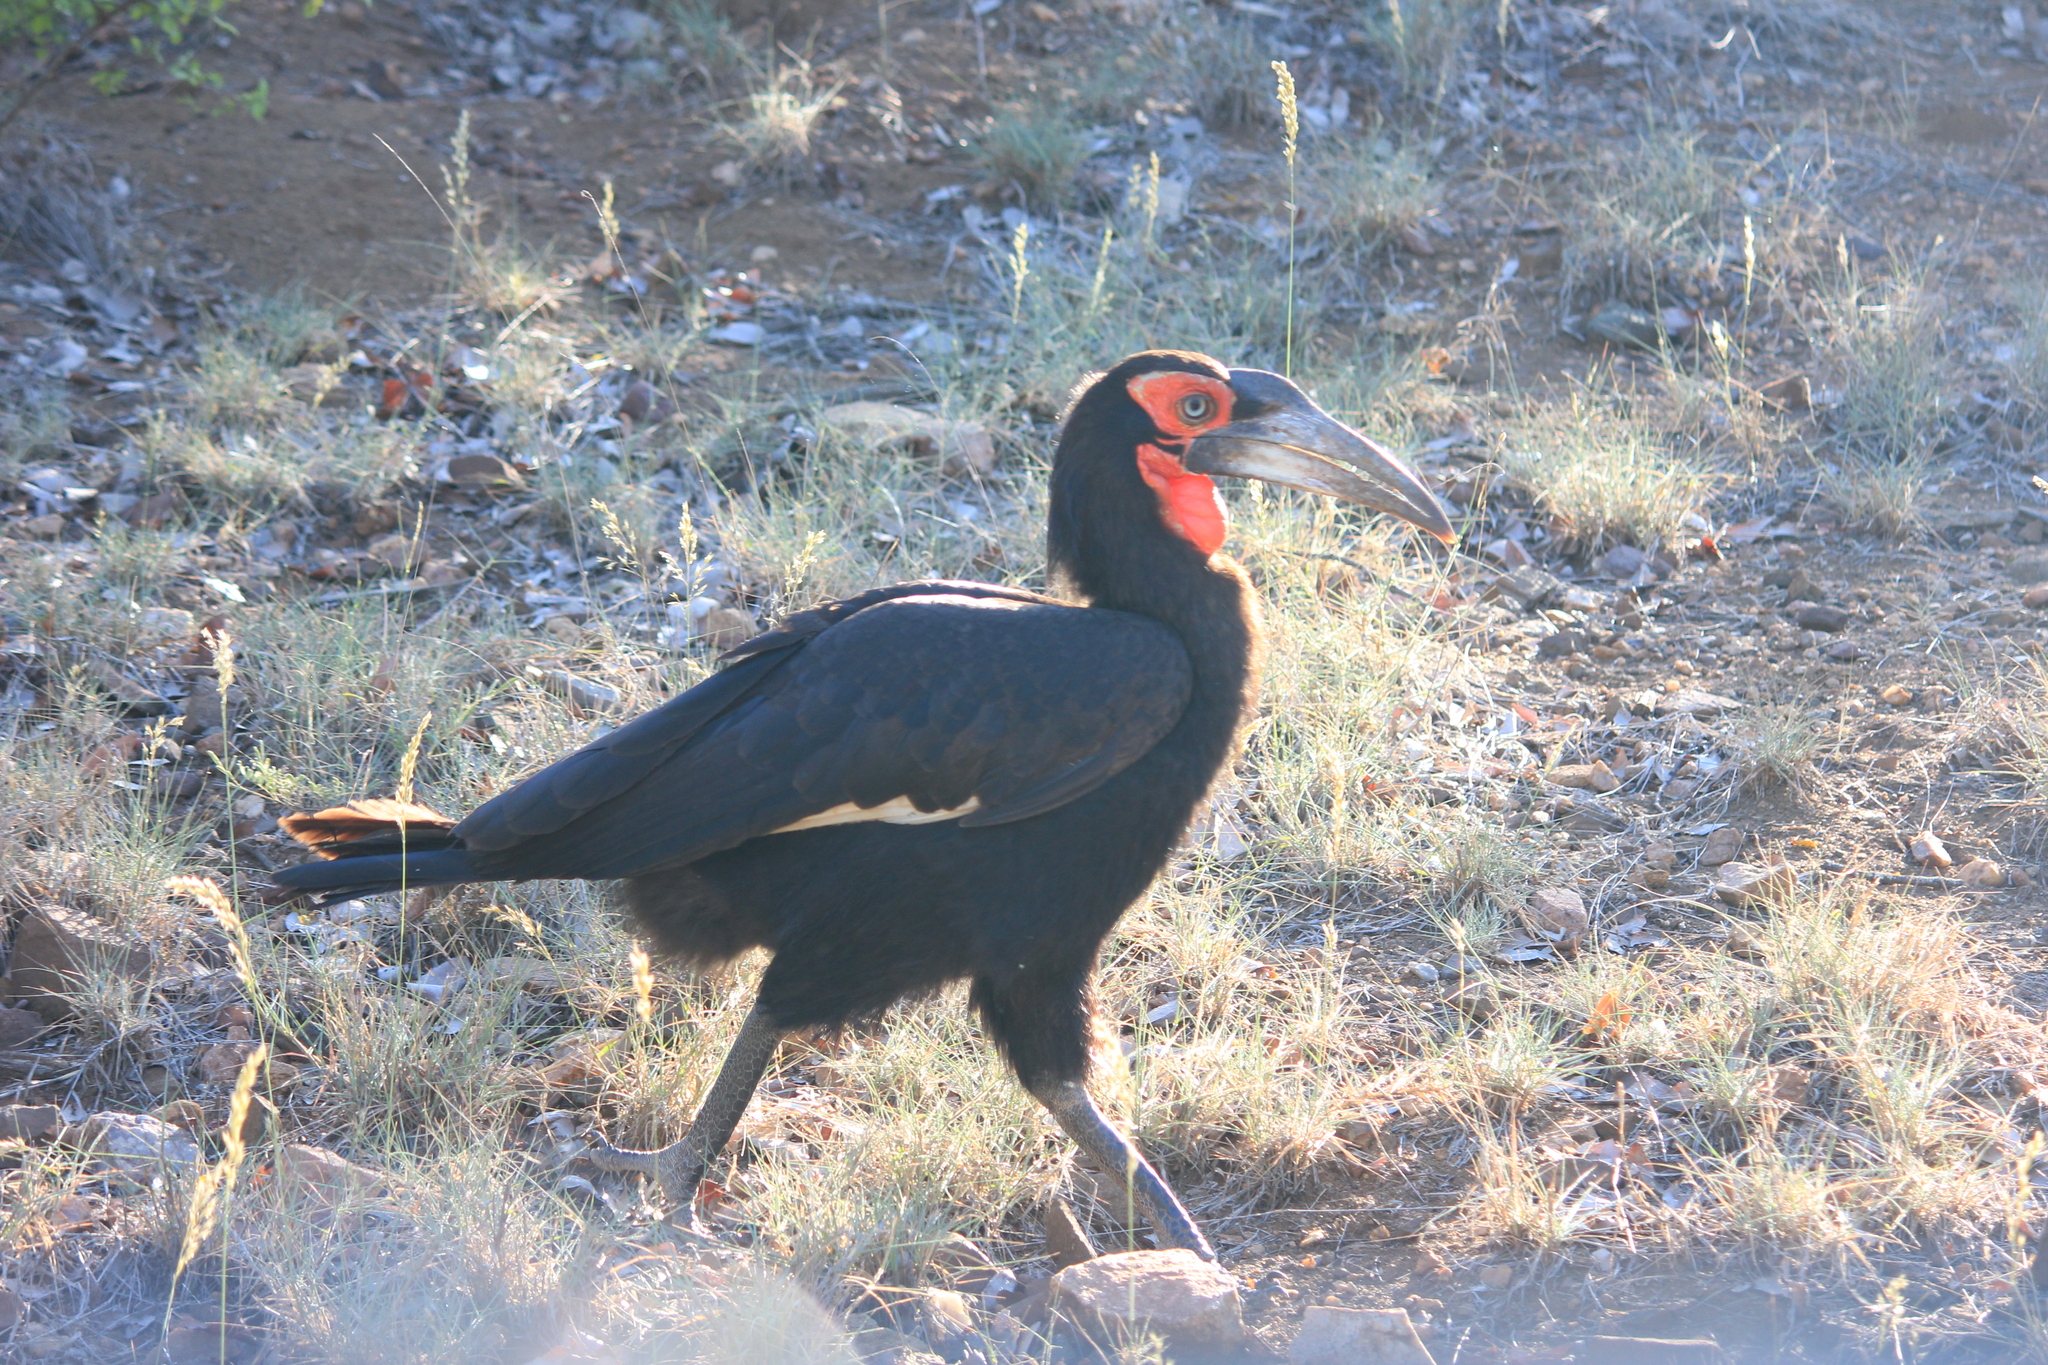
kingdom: Animalia
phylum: Chordata
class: Aves
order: Bucerotiformes
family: Bucorvidae
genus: Bucorvus
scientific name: Bucorvus leadbeateri
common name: Southern ground-hornbill
